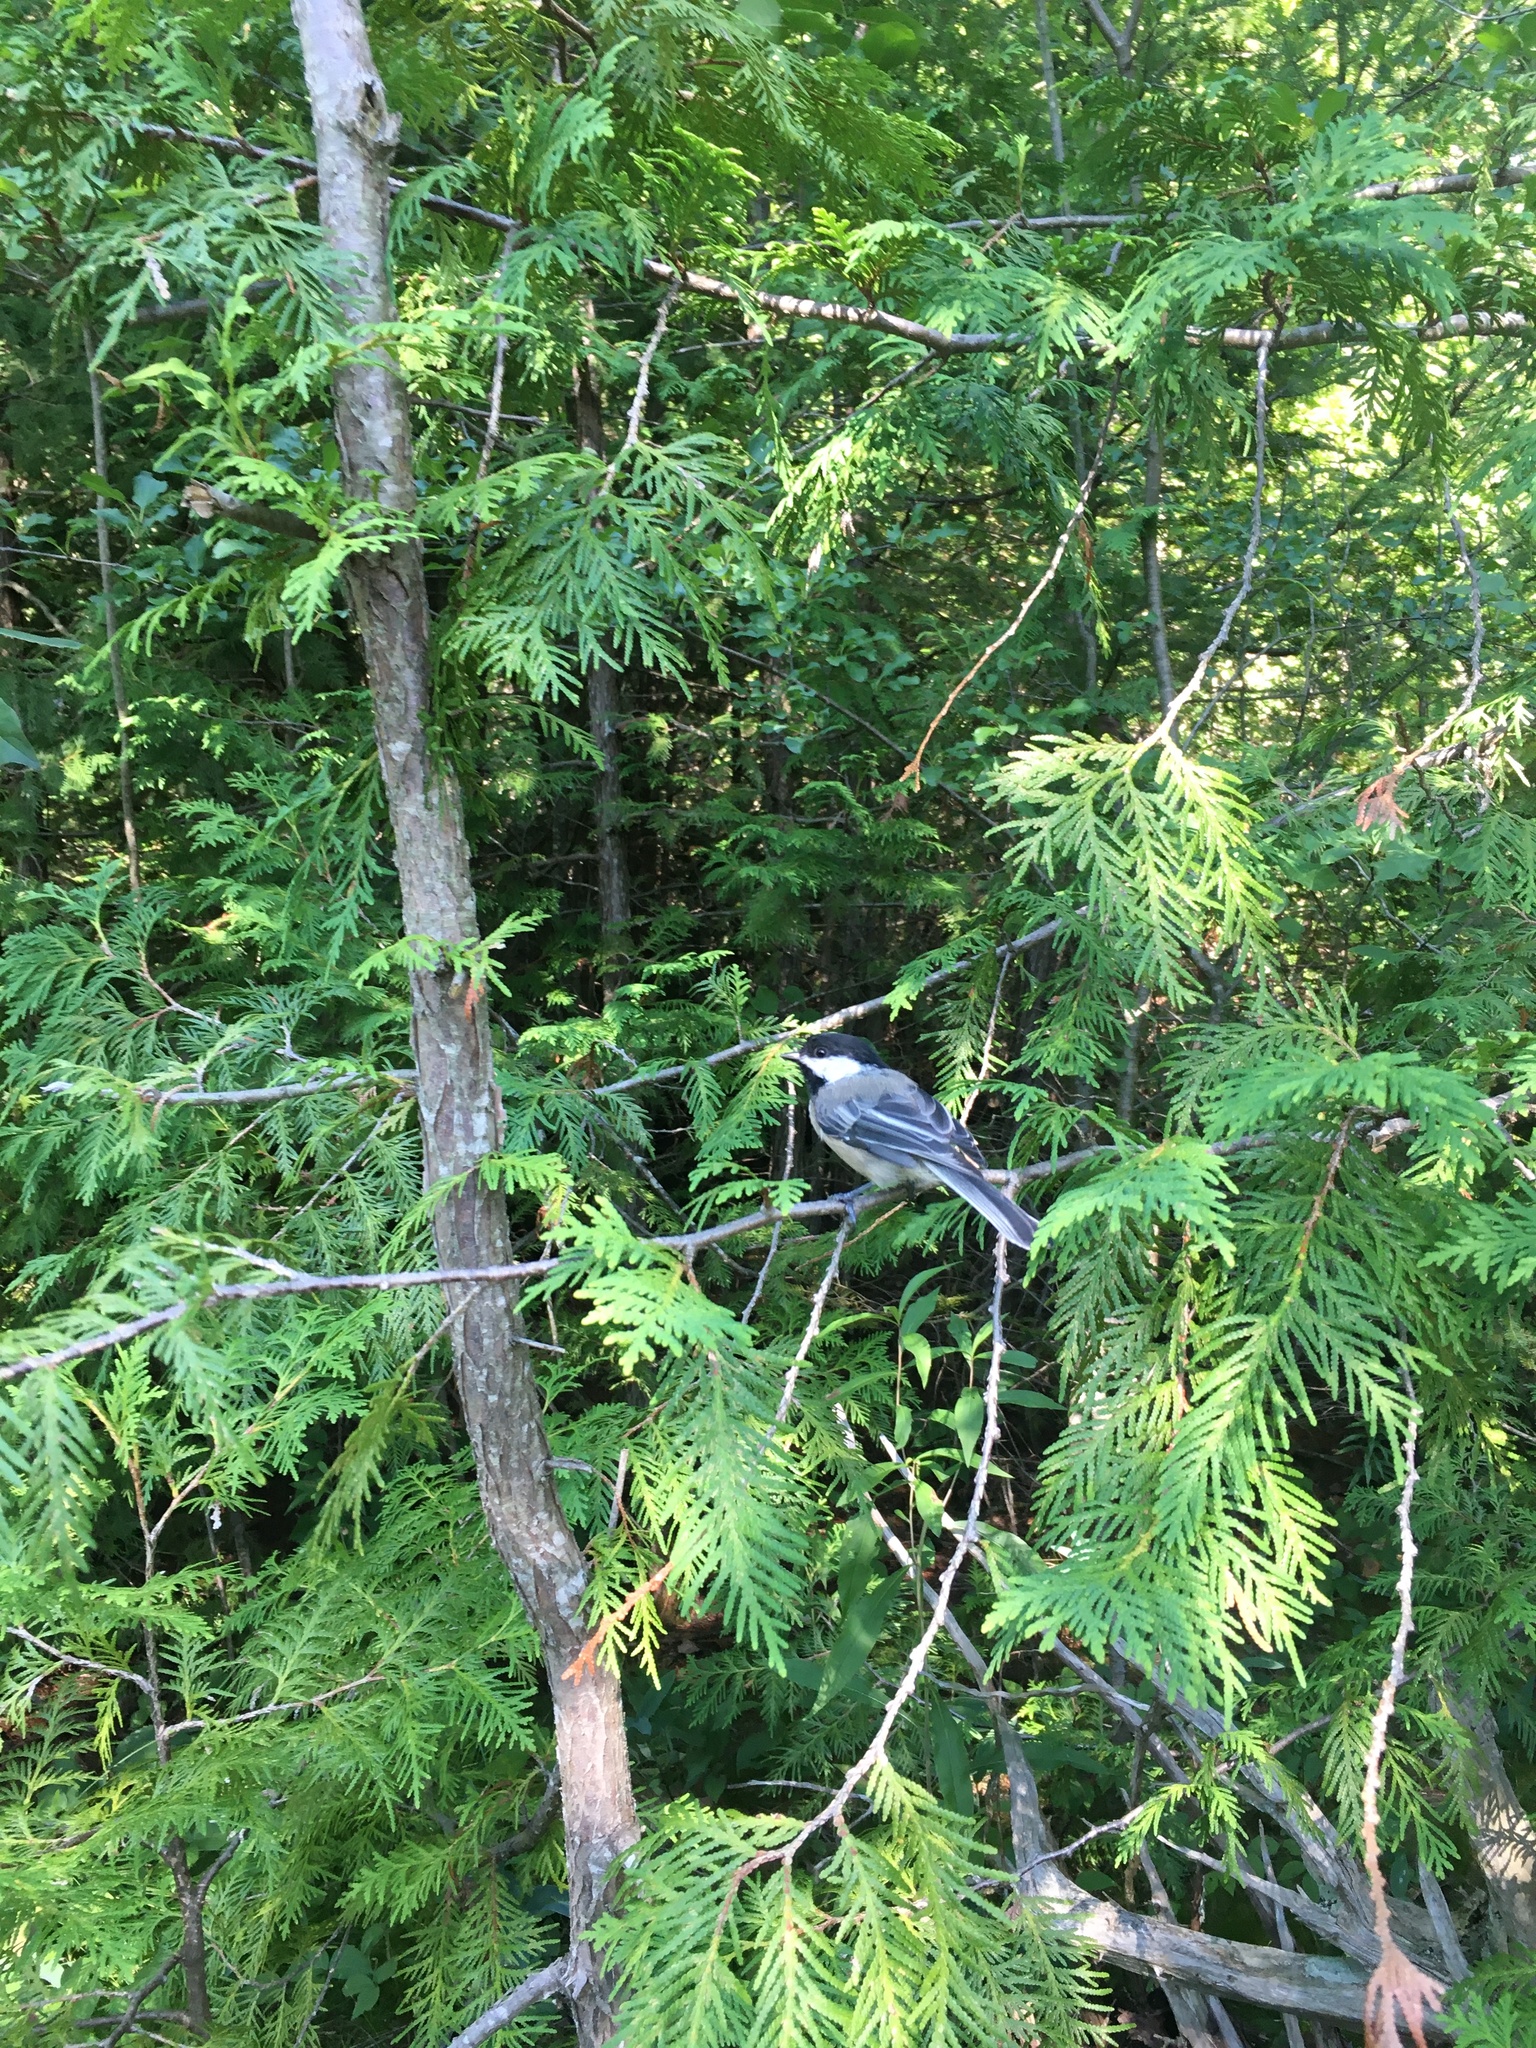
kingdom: Animalia
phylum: Chordata
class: Aves
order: Passeriformes
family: Paridae
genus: Poecile
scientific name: Poecile atricapillus
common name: Black-capped chickadee
